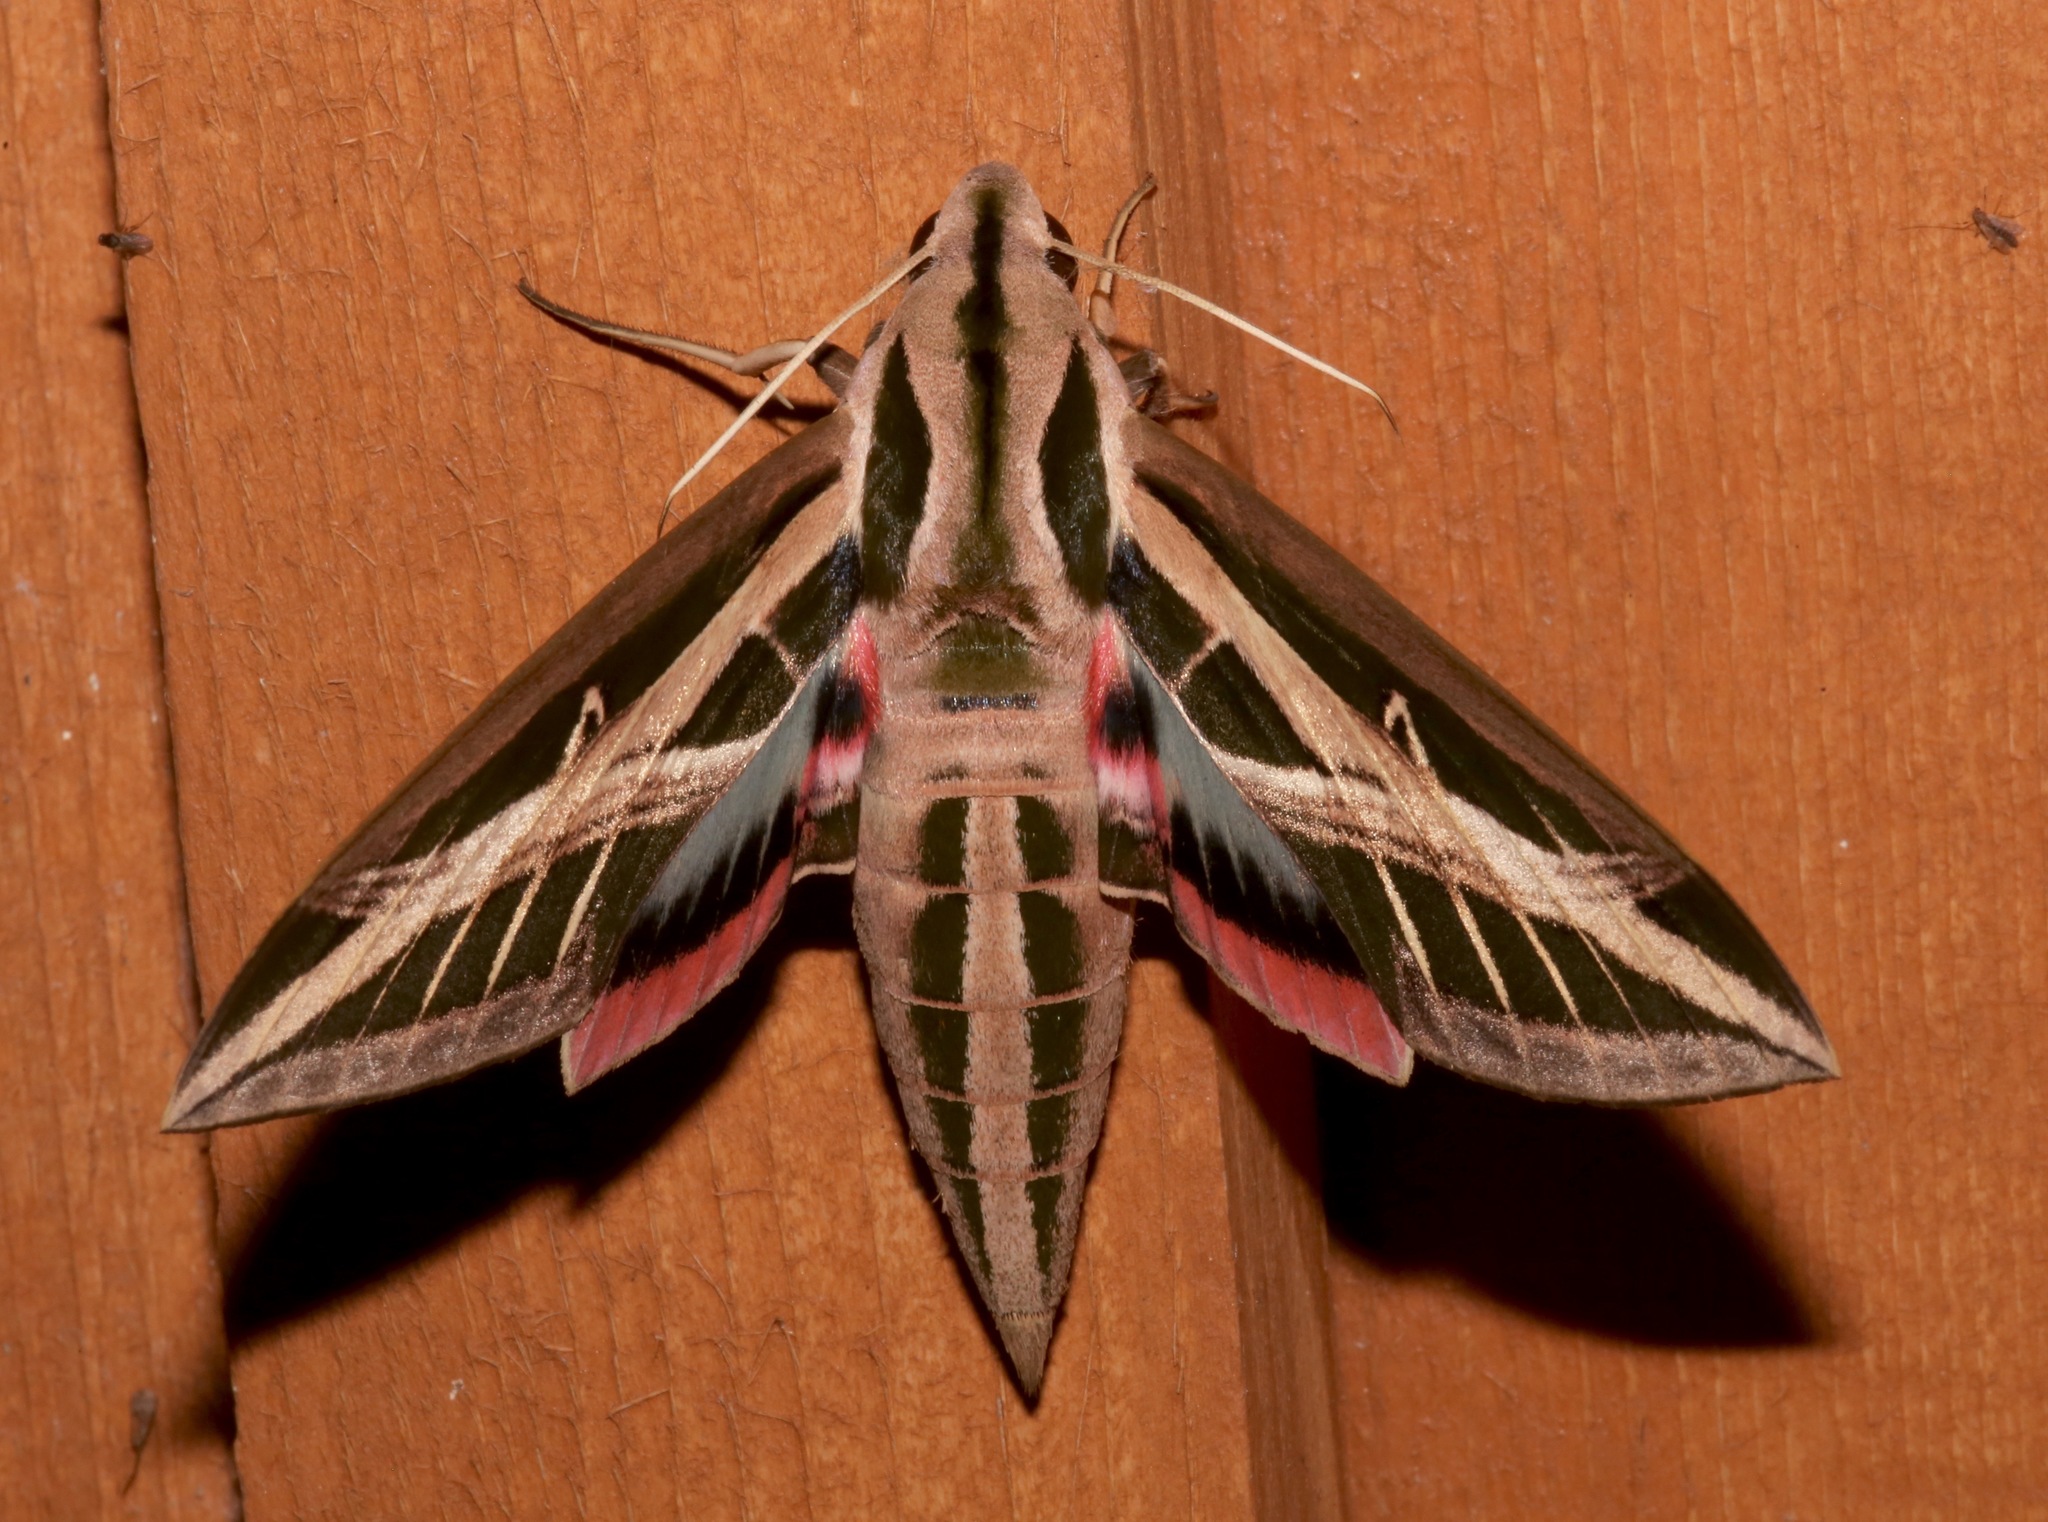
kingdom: Animalia
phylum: Arthropoda
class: Insecta
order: Lepidoptera
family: Sphingidae
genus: Eumorpha
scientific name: Eumorpha fasciatus
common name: Banded sphinx
